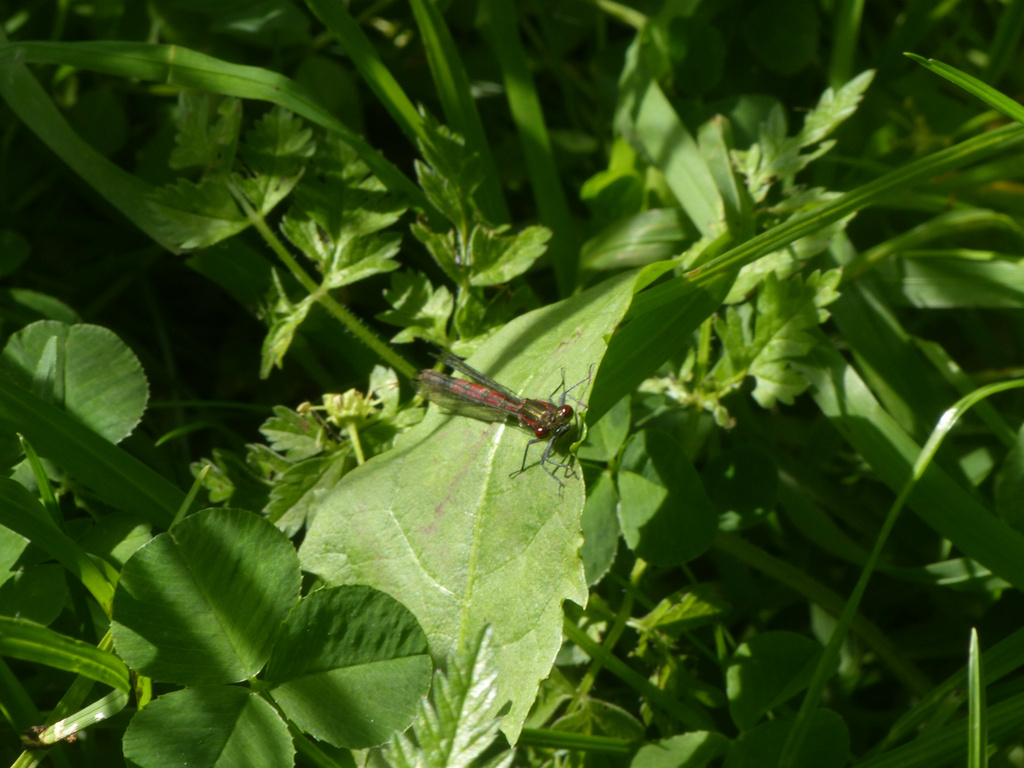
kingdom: Animalia
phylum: Arthropoda
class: Insecta
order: Odonata
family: Coenagrionidae
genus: Pyrrhosoma
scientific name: Pyrrhosoma nymphula
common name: Large red damsel
